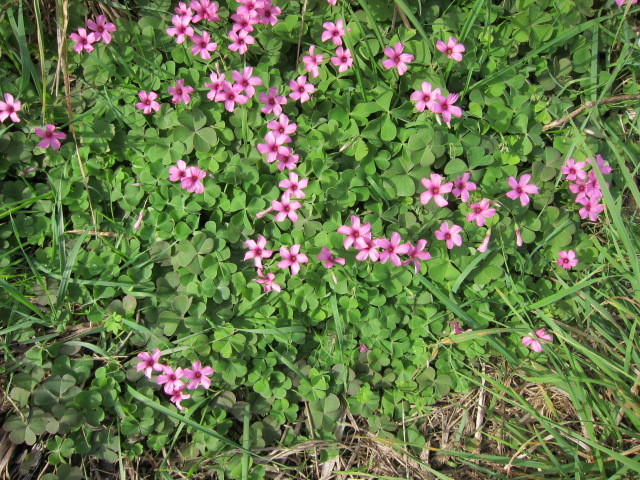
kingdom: Plantae
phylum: Tracheophyta
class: Magnoliopsida
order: Oxalidales
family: Oxalidaceae
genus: Oxalis
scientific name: Oxalis articulata
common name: Pink-sorrel
